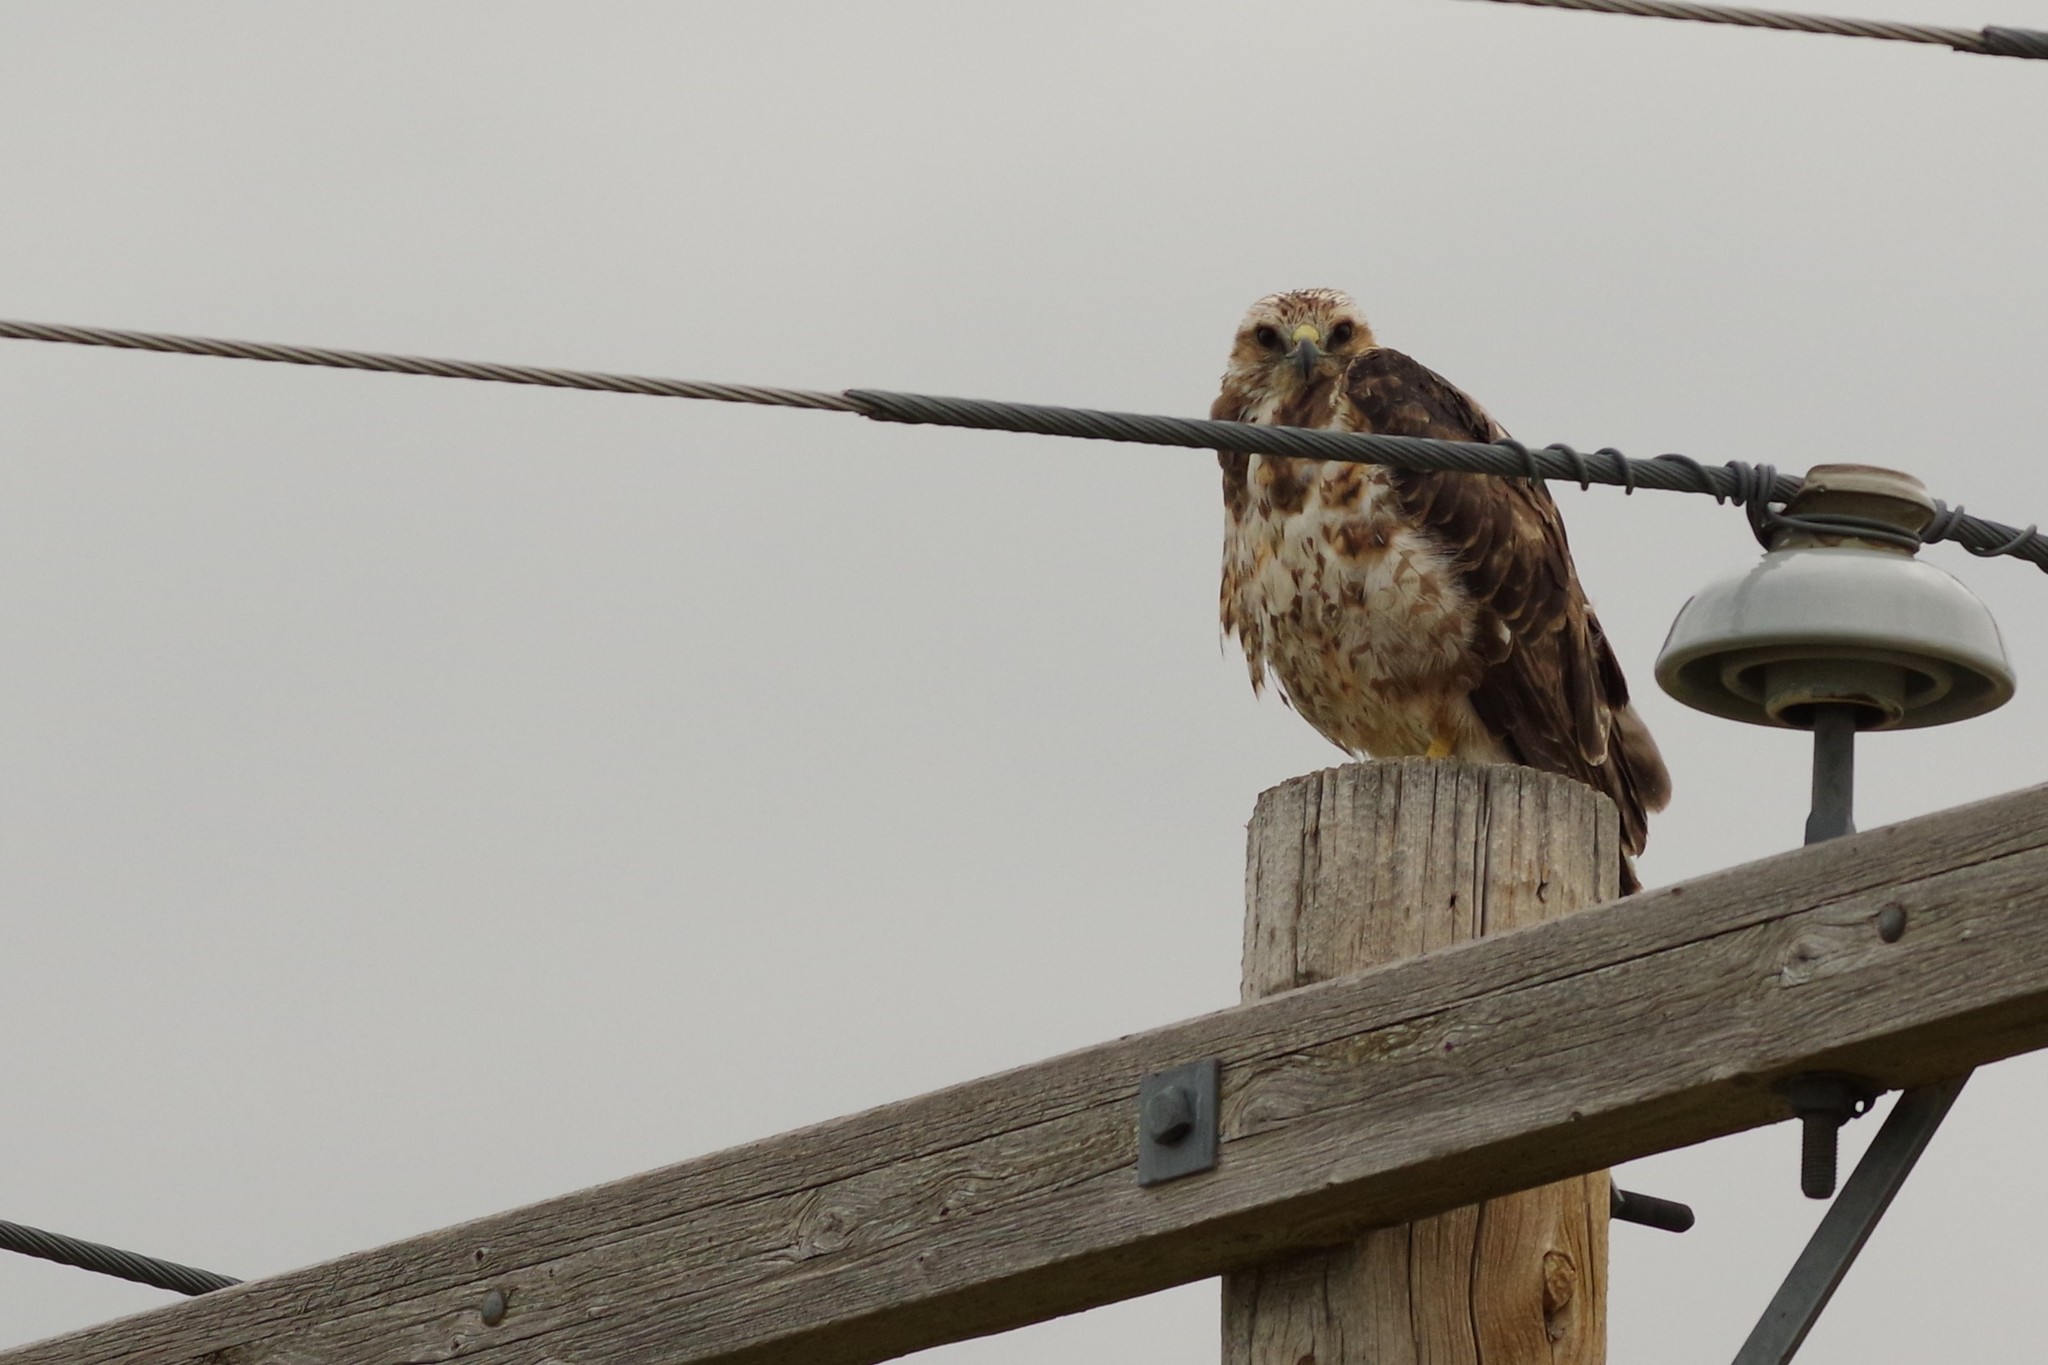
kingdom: Animalia
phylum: Chordata
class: Aves
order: Accipitriformes
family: Accipitridae
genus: Buteo
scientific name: Buteo swainsoni
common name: Swainson's hawk
